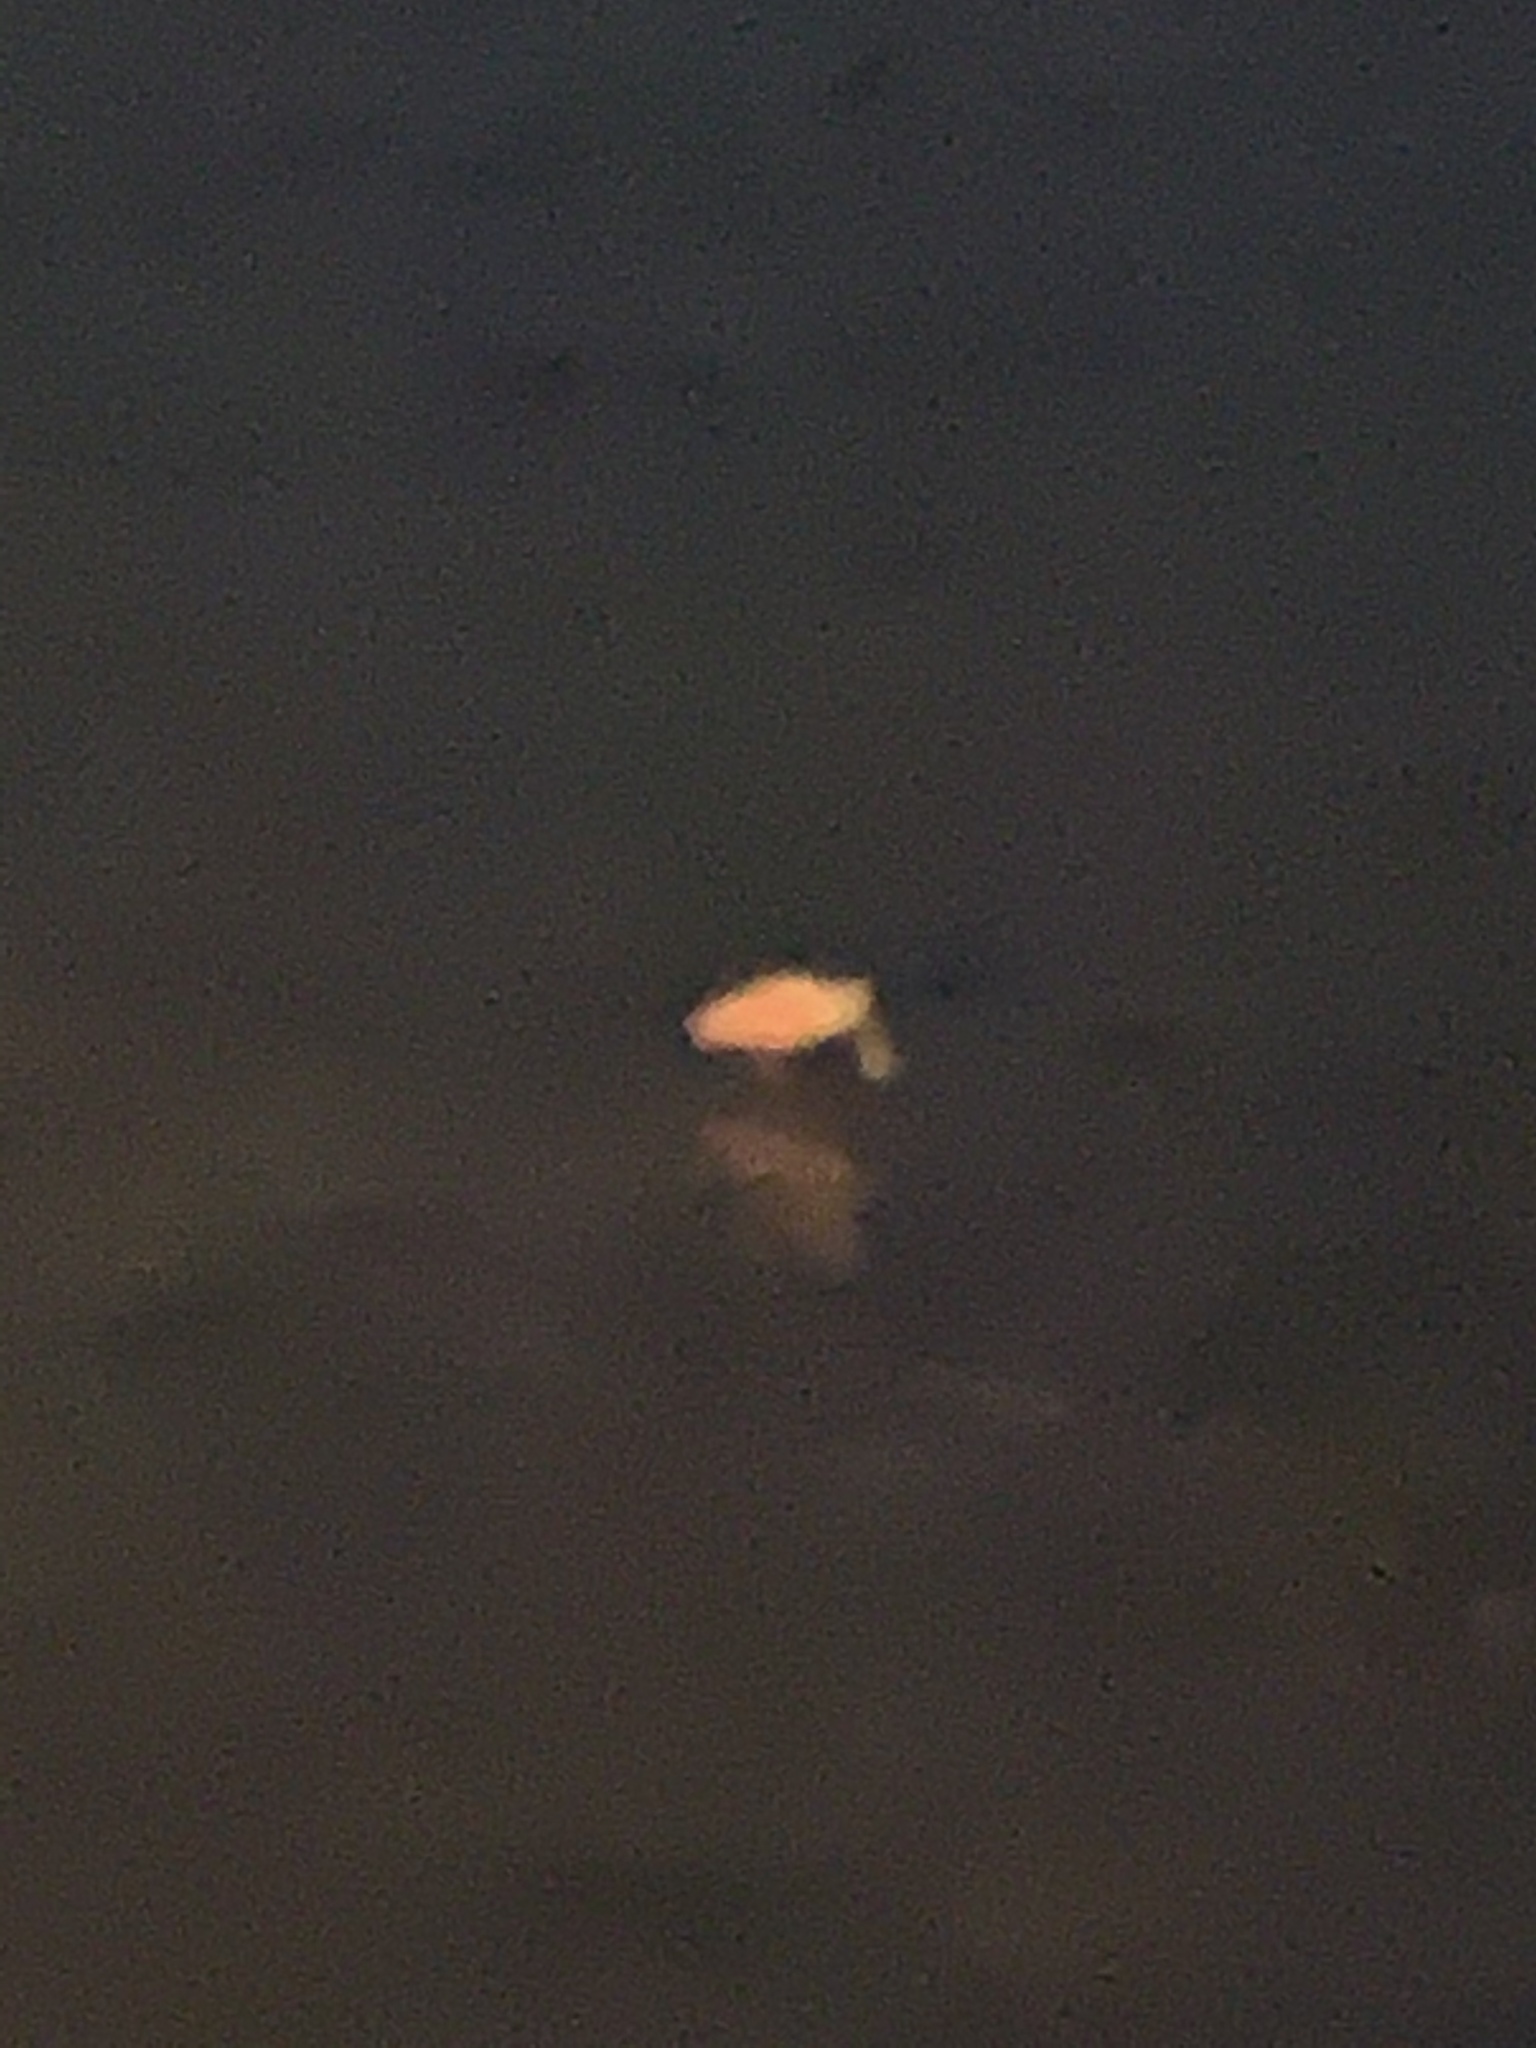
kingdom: Animalia
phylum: Chordata
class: Aves
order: Pelecaniformes
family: Threskiornithidae
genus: Platalea
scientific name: Platalea ajaja
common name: Roseate spoonbill
